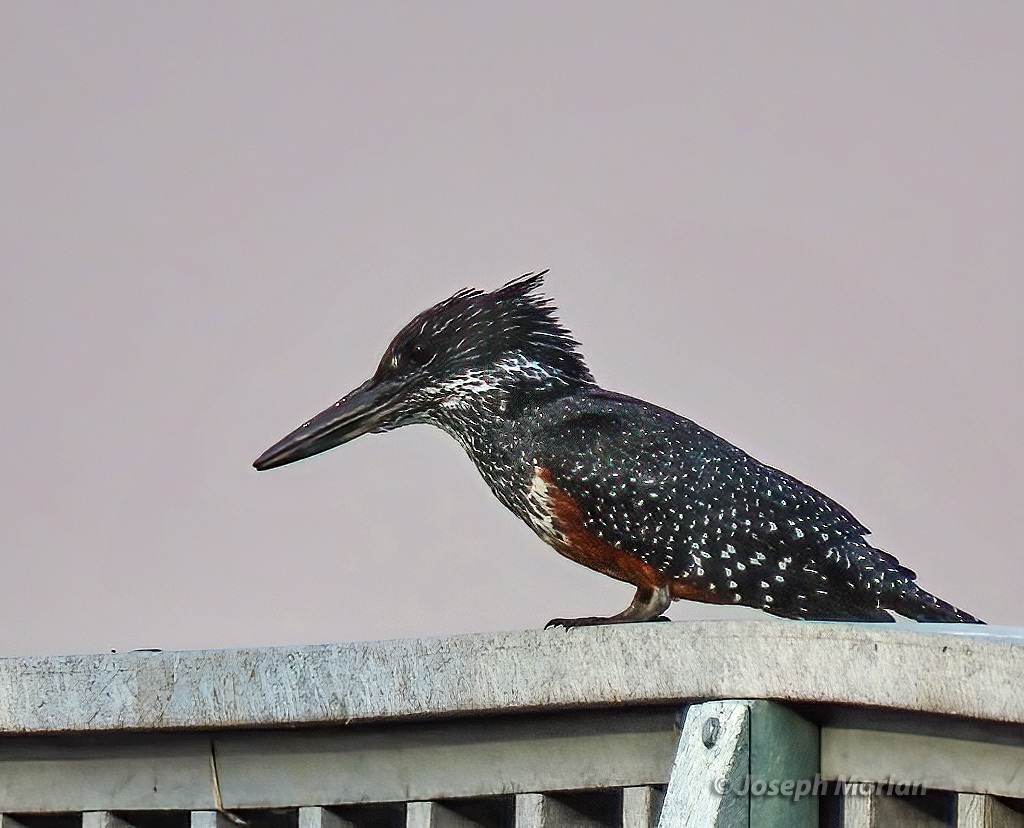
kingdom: Animalia
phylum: Chordata
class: Aves
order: Coraciiformes
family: Alcedinidae
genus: Megaceryle
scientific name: Megaceryle maxima
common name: Giant kingfisher
